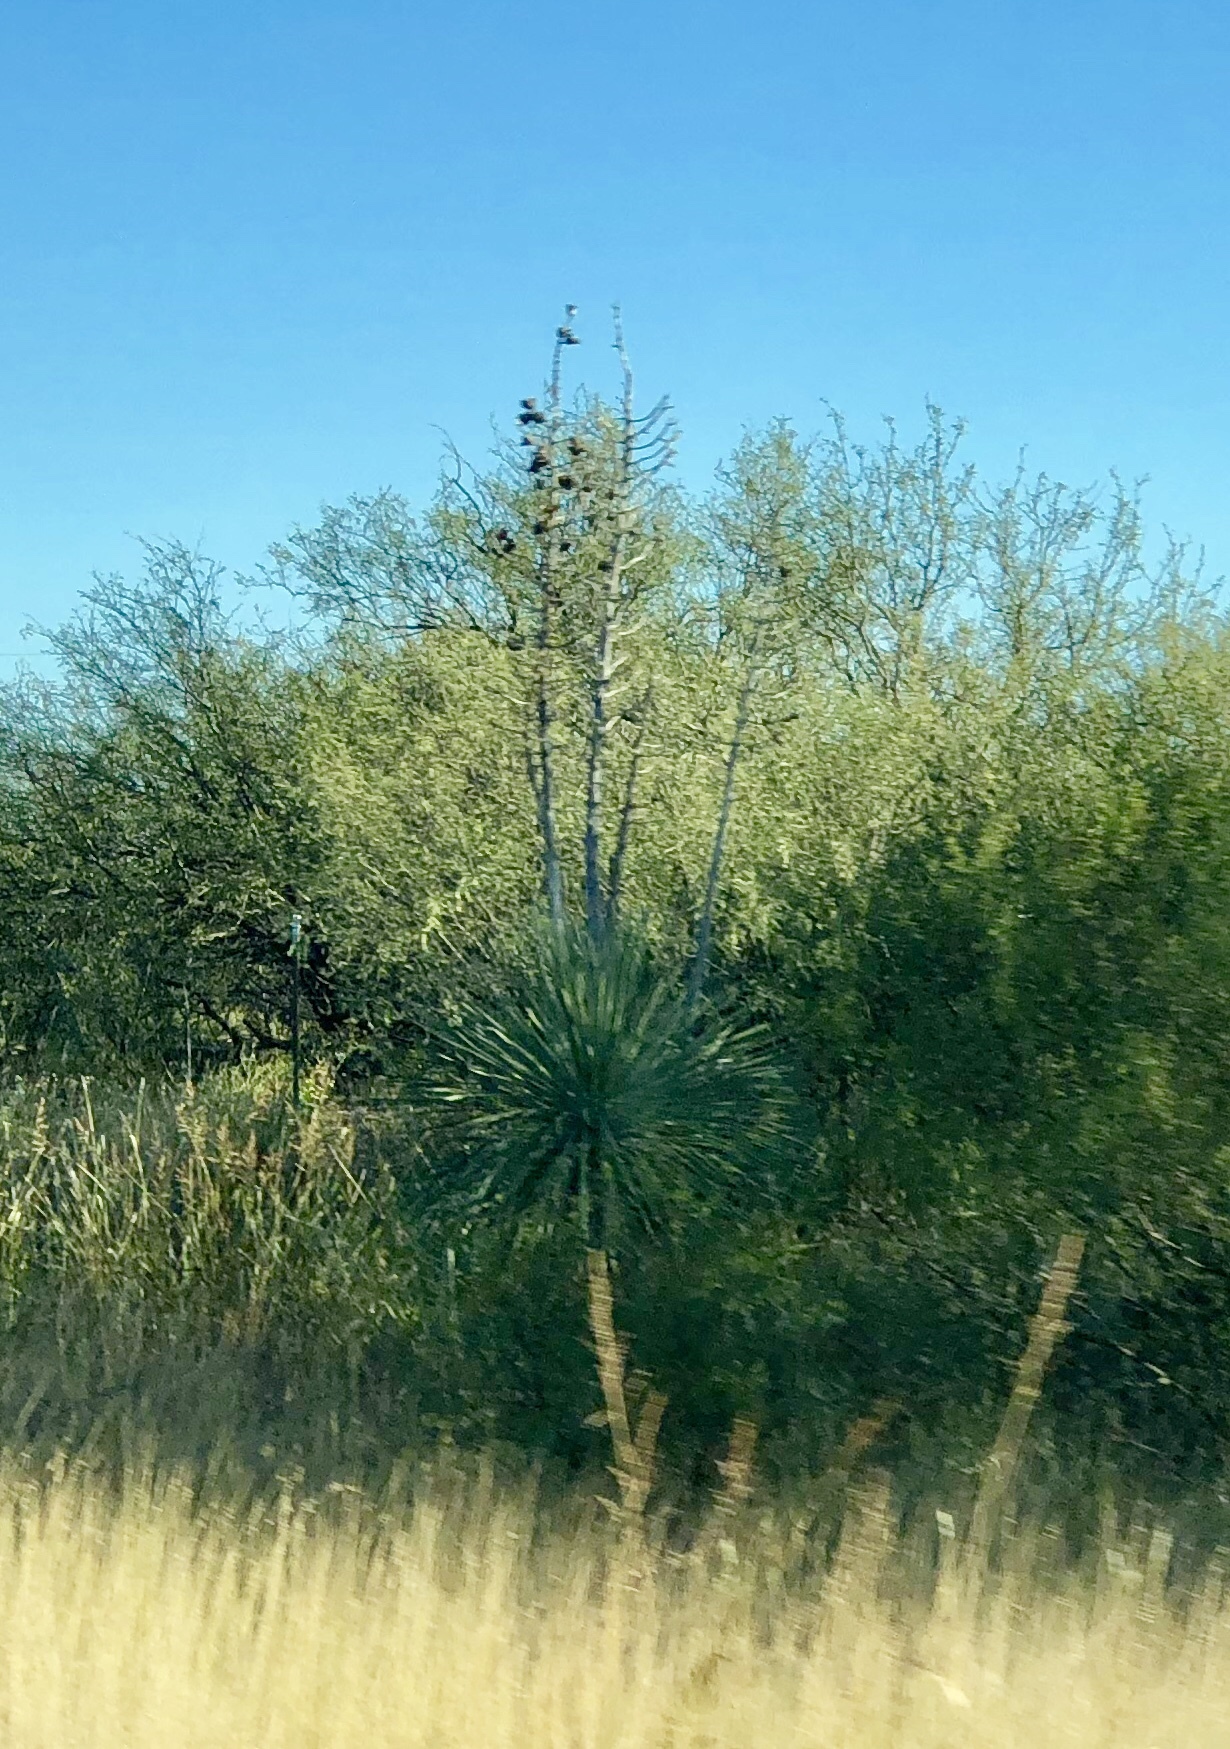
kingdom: Plantae
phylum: Tracheophyta
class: Liliopsida
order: Asparagales
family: Asparagaceae
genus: Yucca
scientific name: Yucca elata
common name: Palmella
